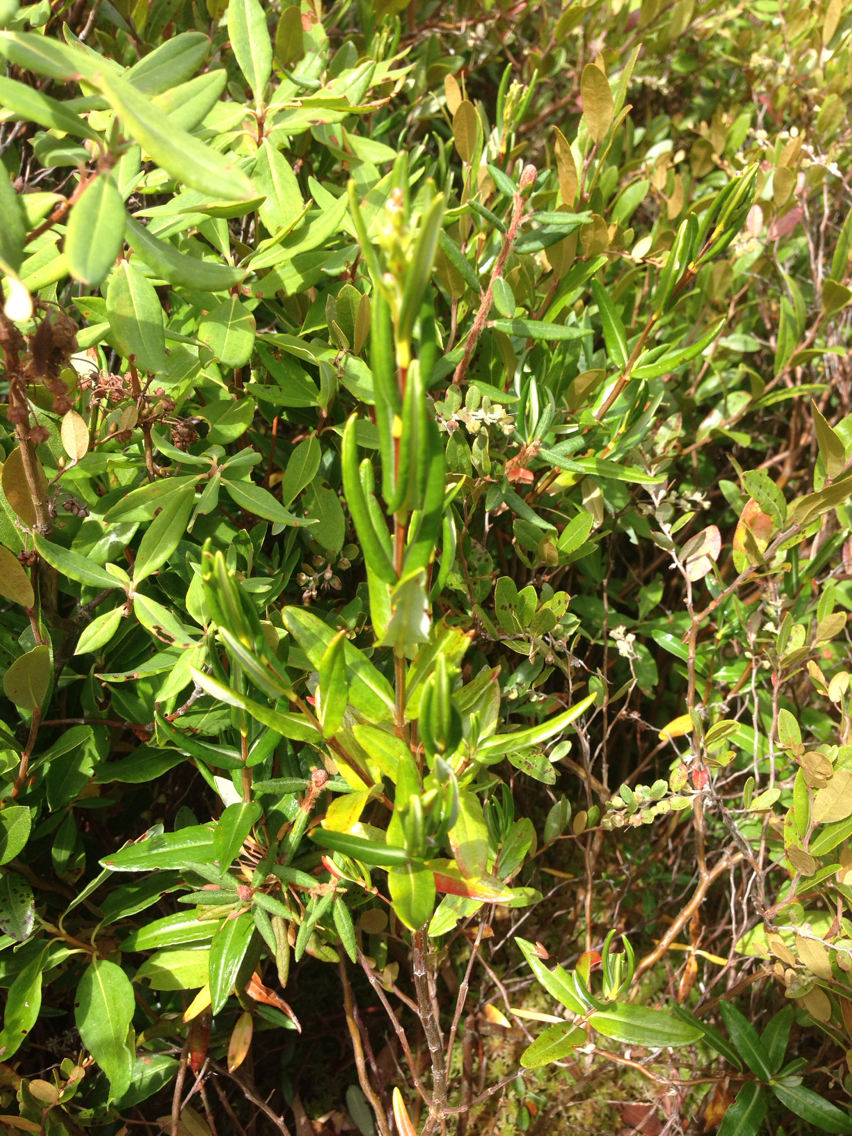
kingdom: Plantae
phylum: Tracheophyta
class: Magnoliopsida
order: Ericales
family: Ericaceae
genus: Kalmia
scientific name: Kalmia polifolia
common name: Bog-laurel
